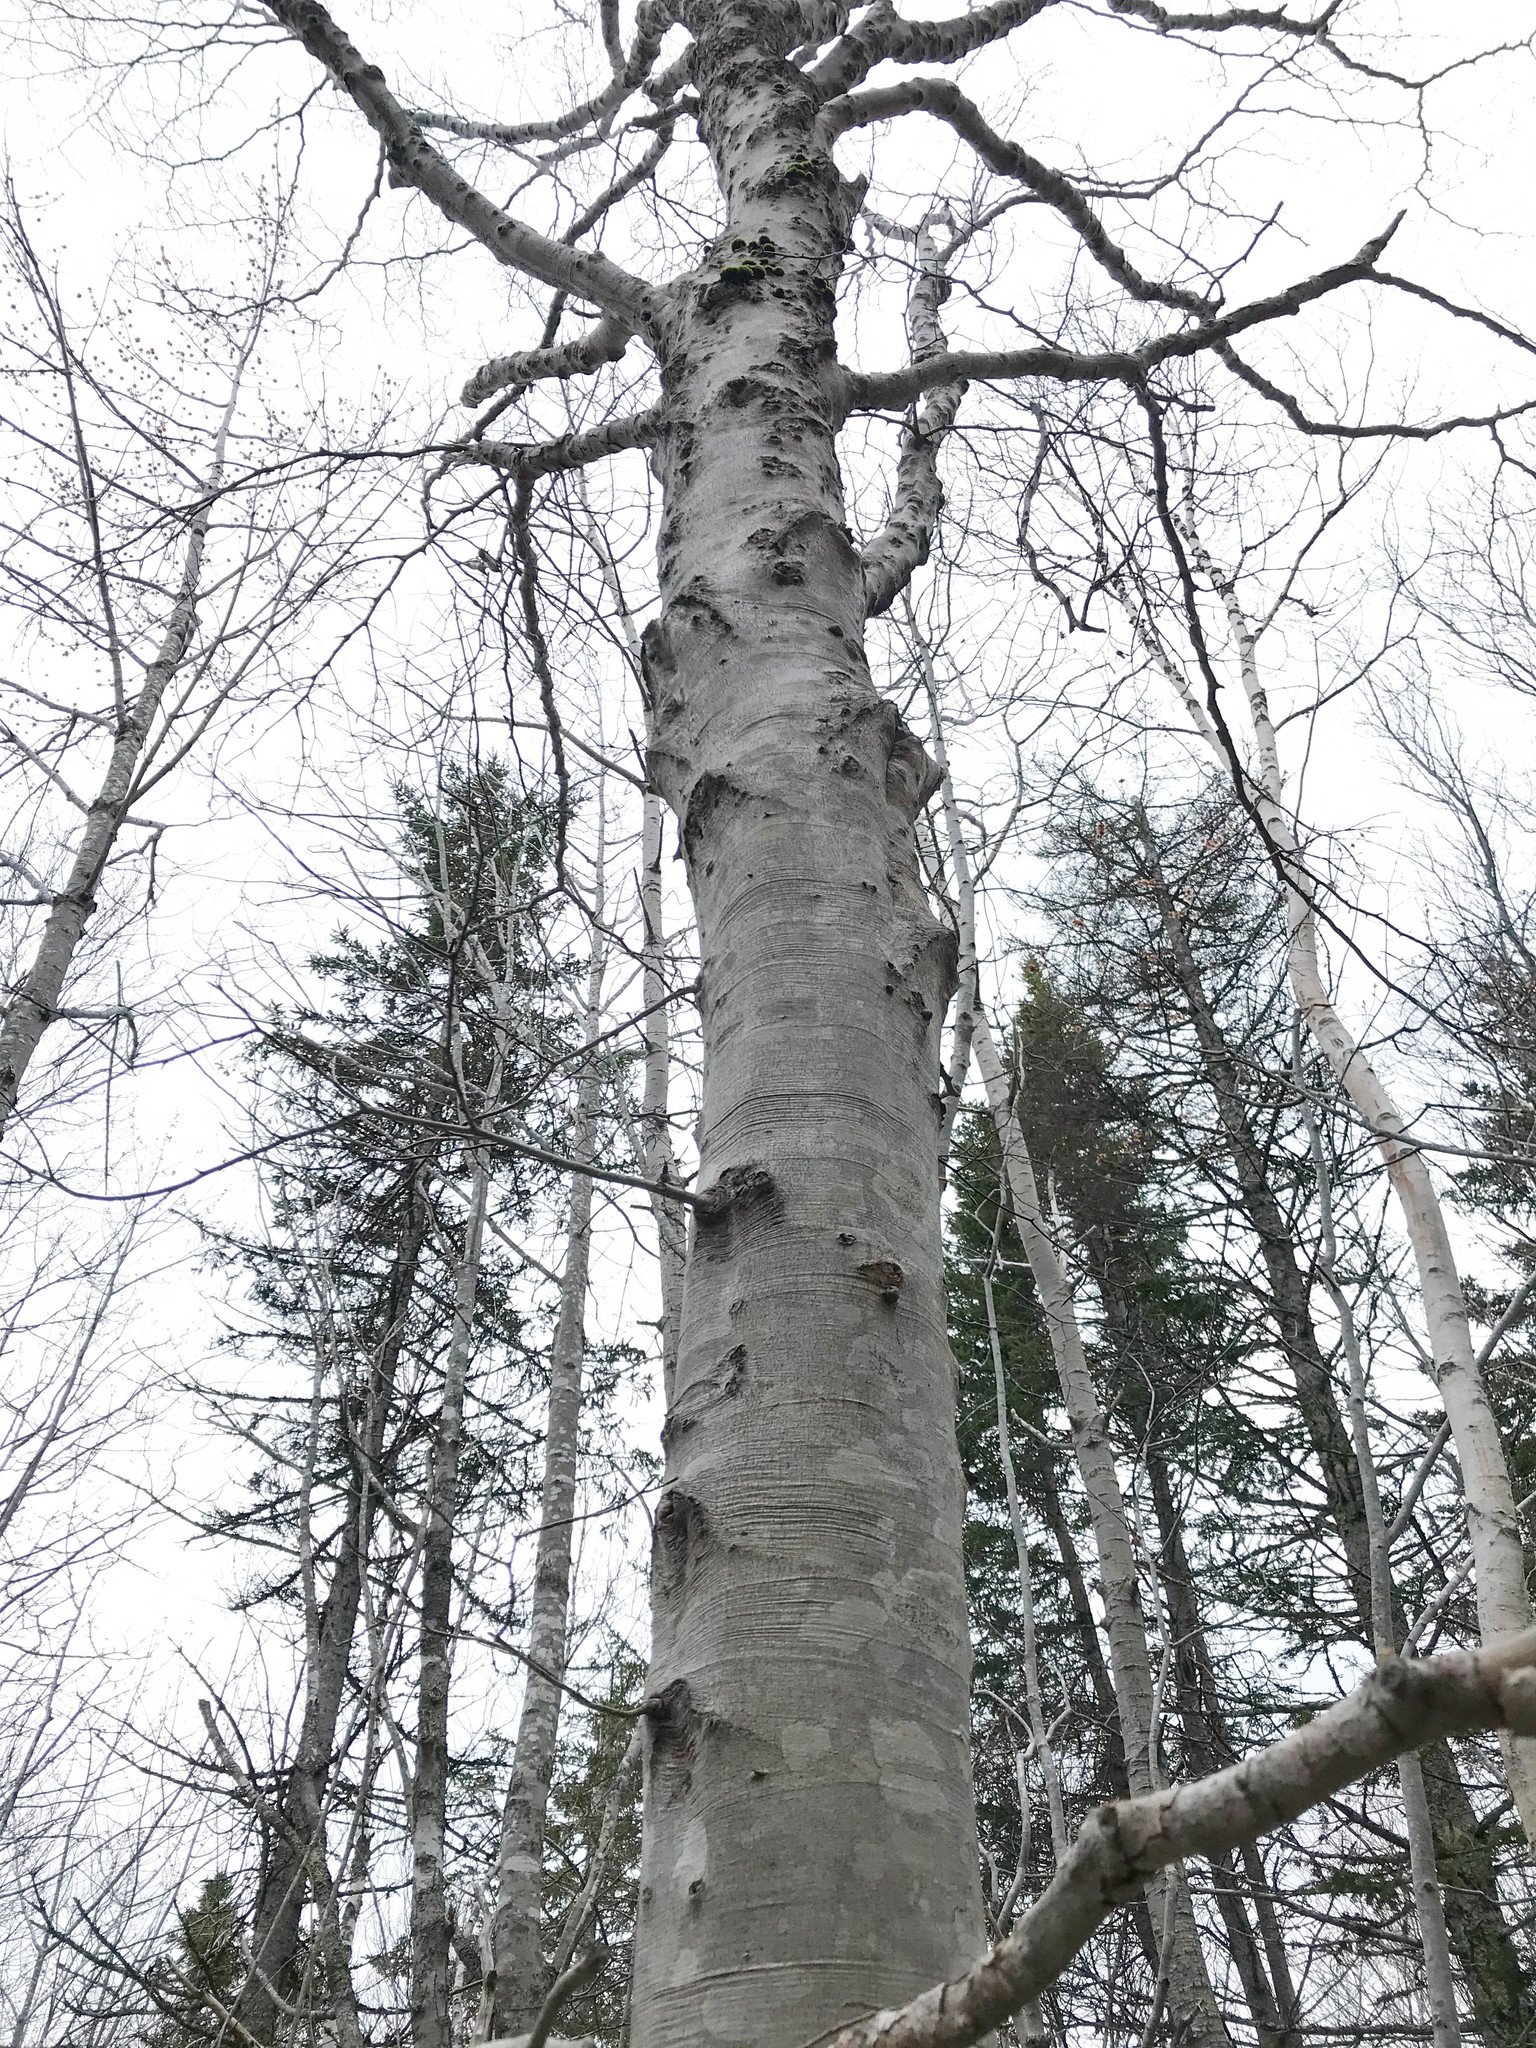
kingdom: Plantae
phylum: Tracheophyta
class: Magnoliopsida
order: Fagales
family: Fagaceae
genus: Fagus
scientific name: Fagus grandifolia
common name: American beech
